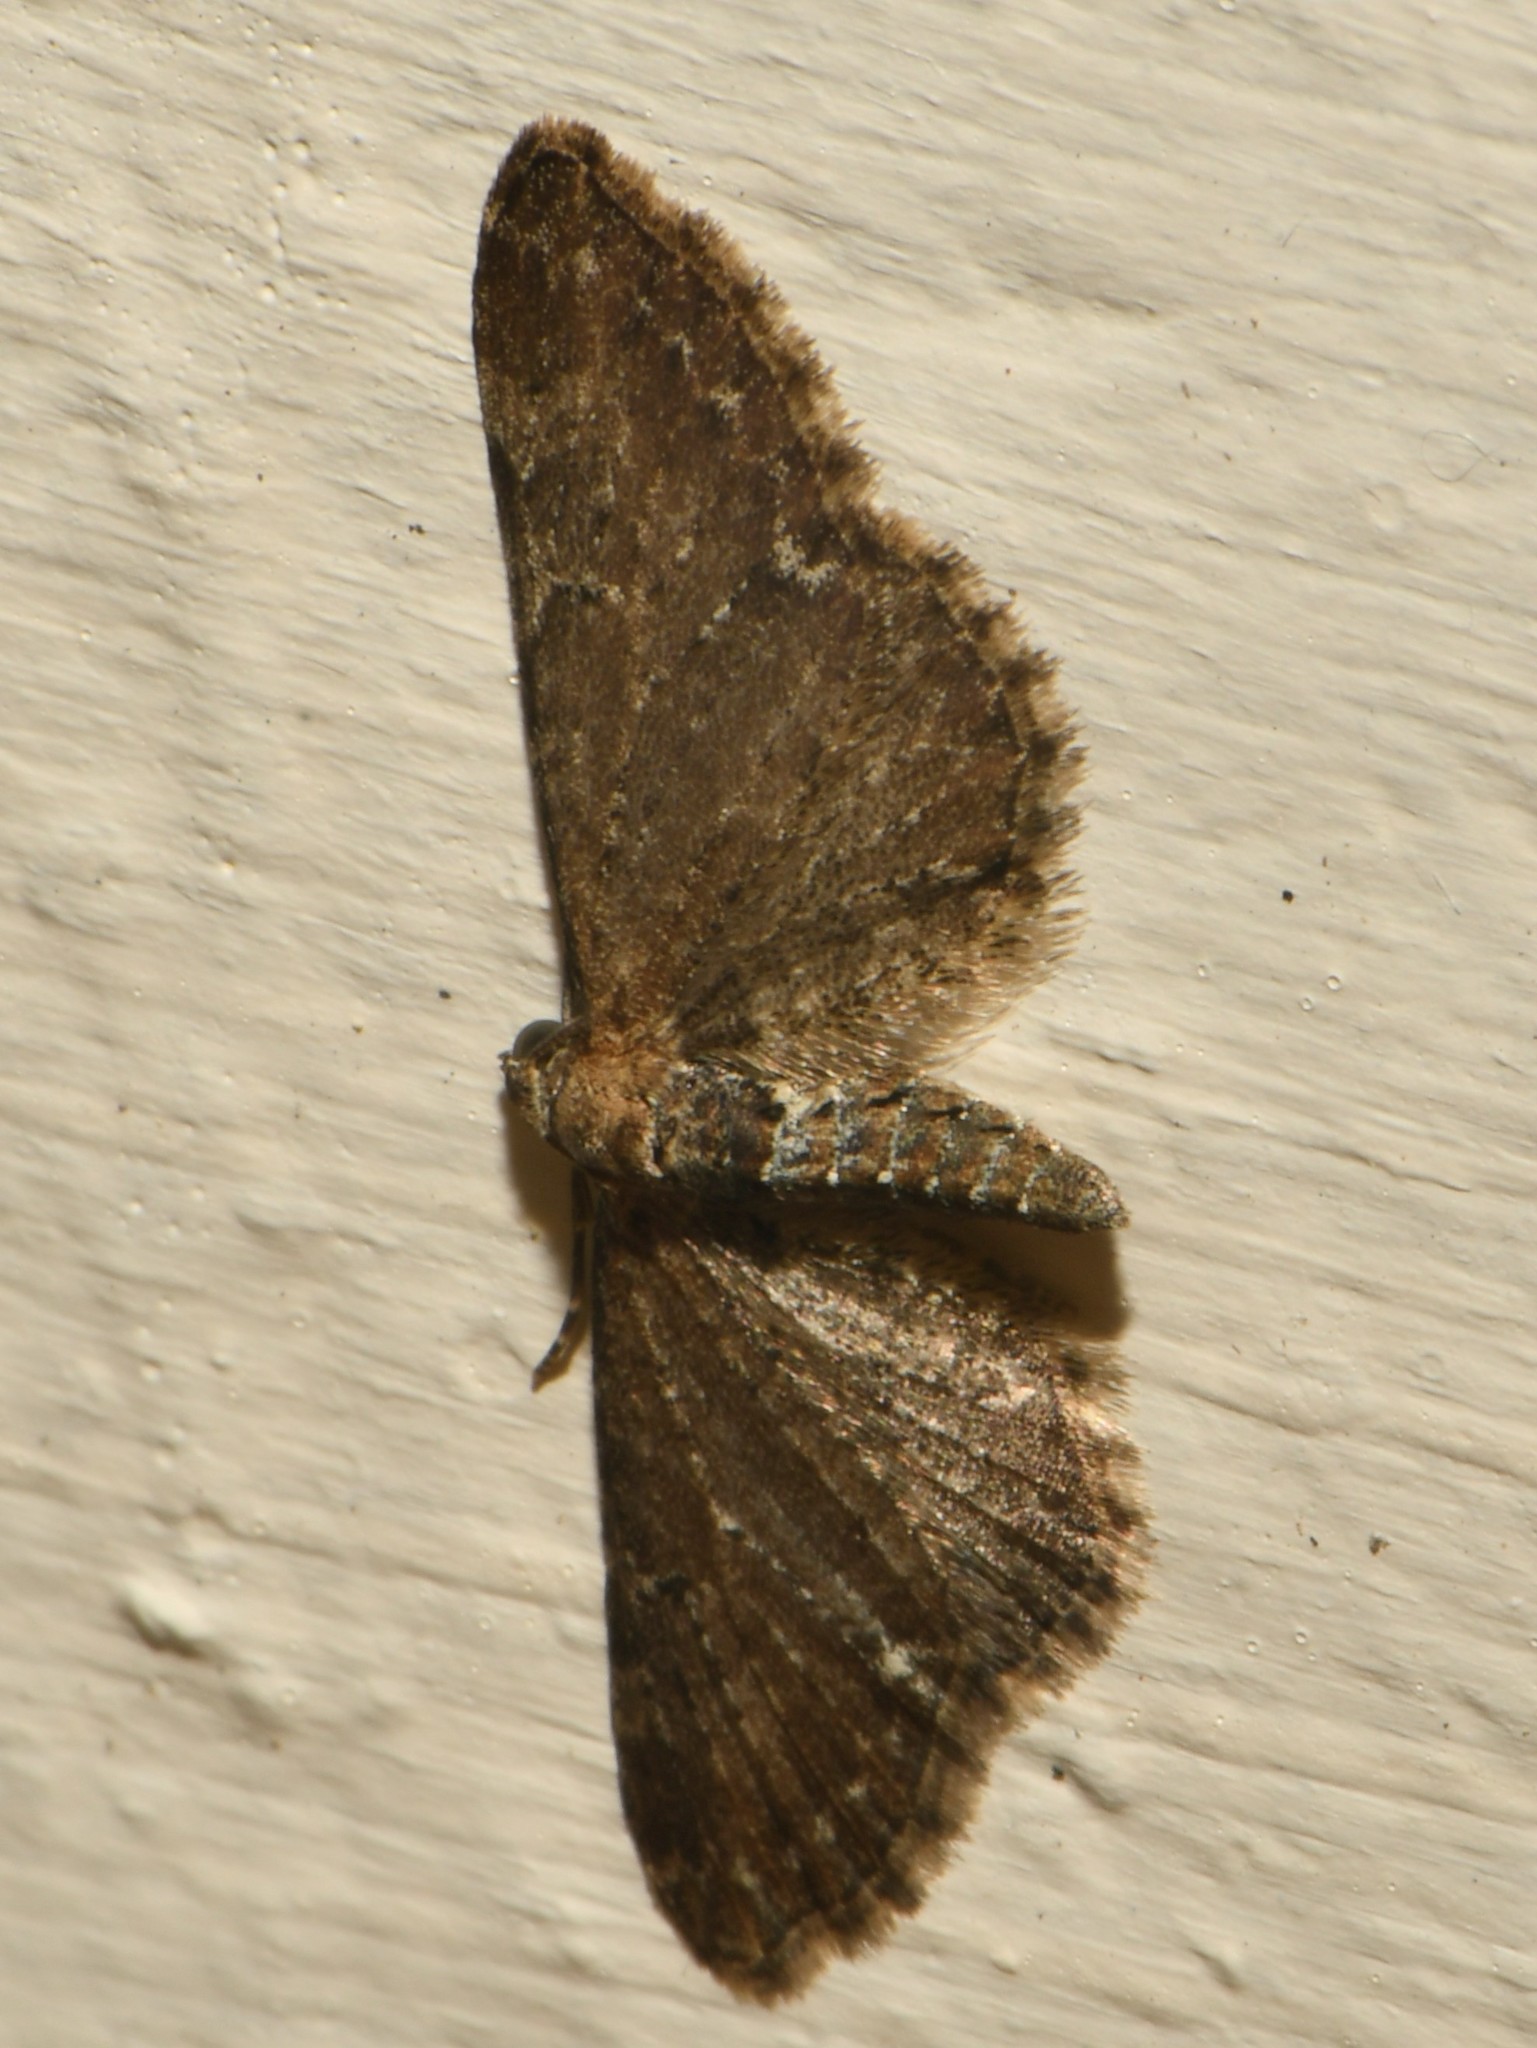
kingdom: Animalia
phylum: Arthropoda
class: Insecta
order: Lepidoptera
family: Geometridae
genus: Eupithecia
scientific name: Eupithecia vulgata
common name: Common pug
